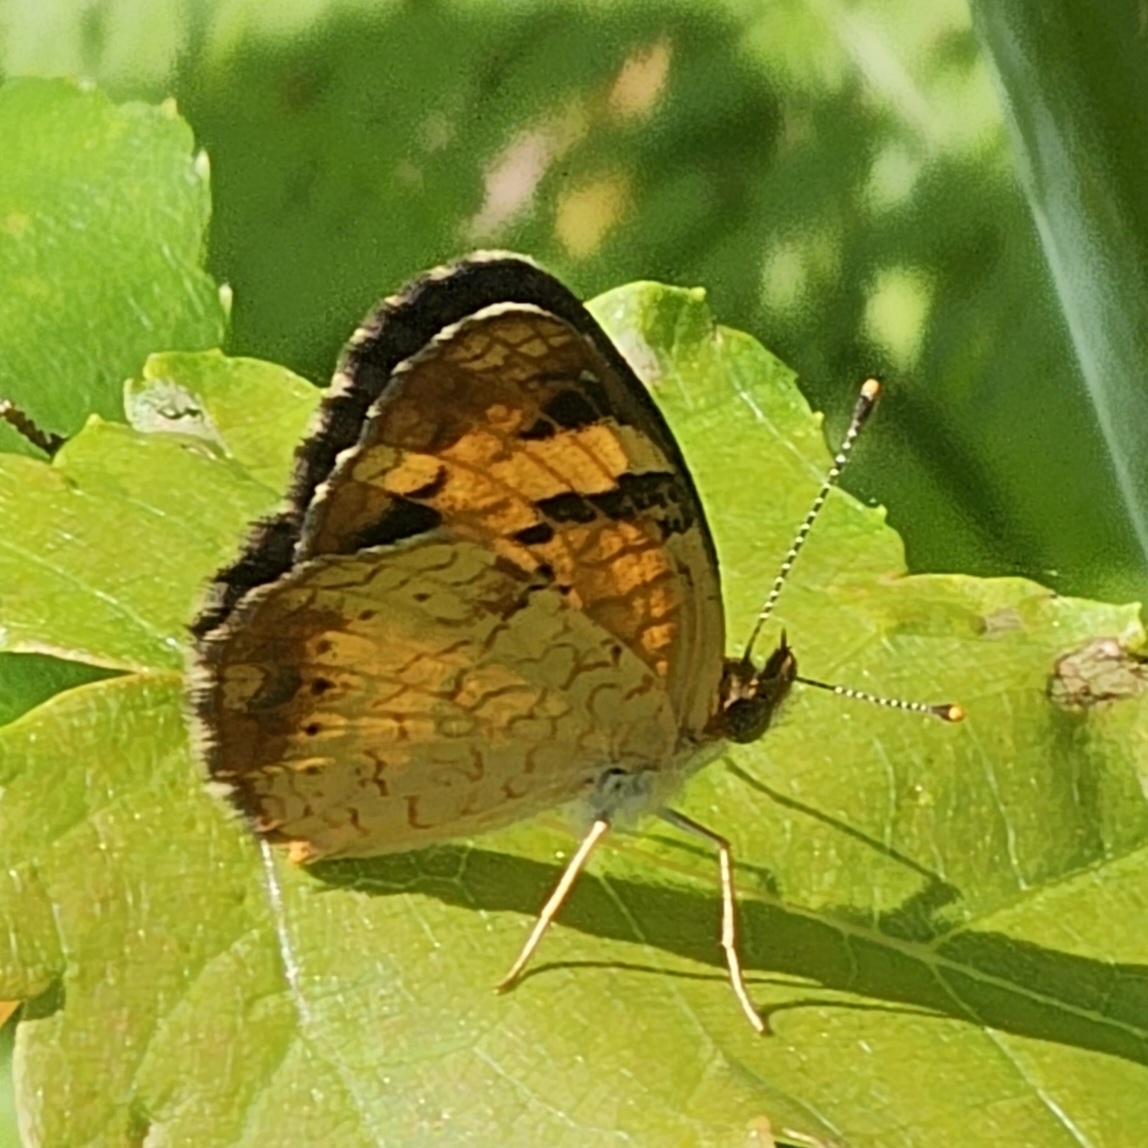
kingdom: Animalia
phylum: Arthropoda
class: Insecta
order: Lepidoptera
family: Nymphalidae
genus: Phyciodes
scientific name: Phyciodes tharos
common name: Pearl crescent
